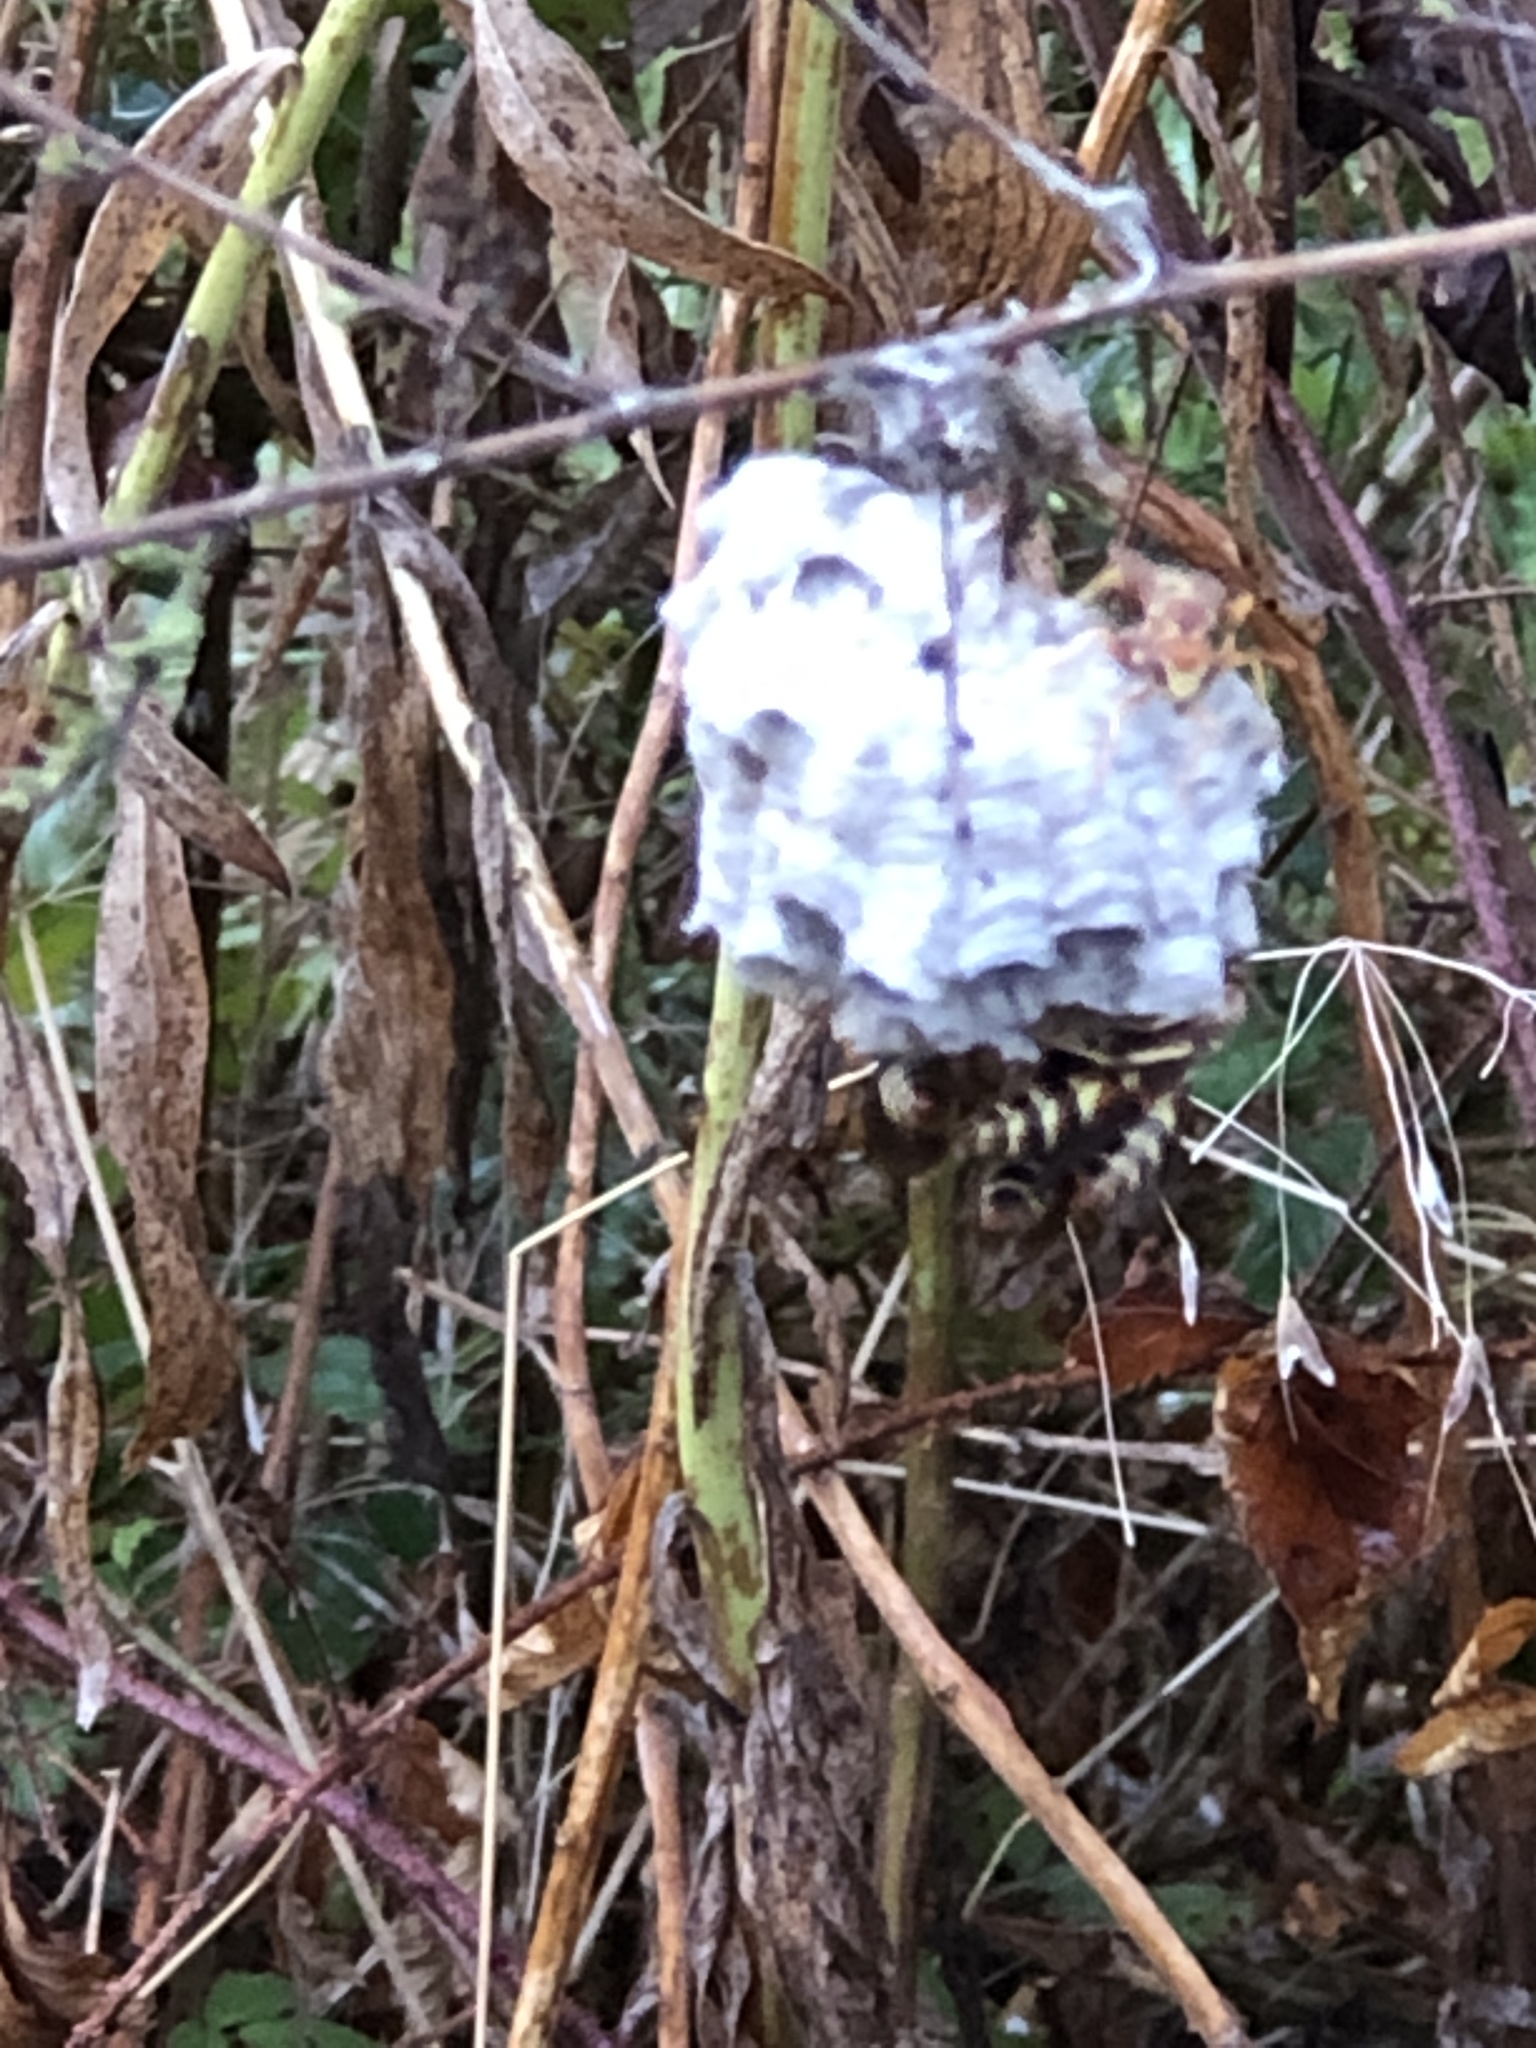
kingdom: Animalia
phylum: Arthropoda
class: Insecta
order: Hymenoptera
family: Eumenidae
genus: Polistes
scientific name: Polistes dorsalis
